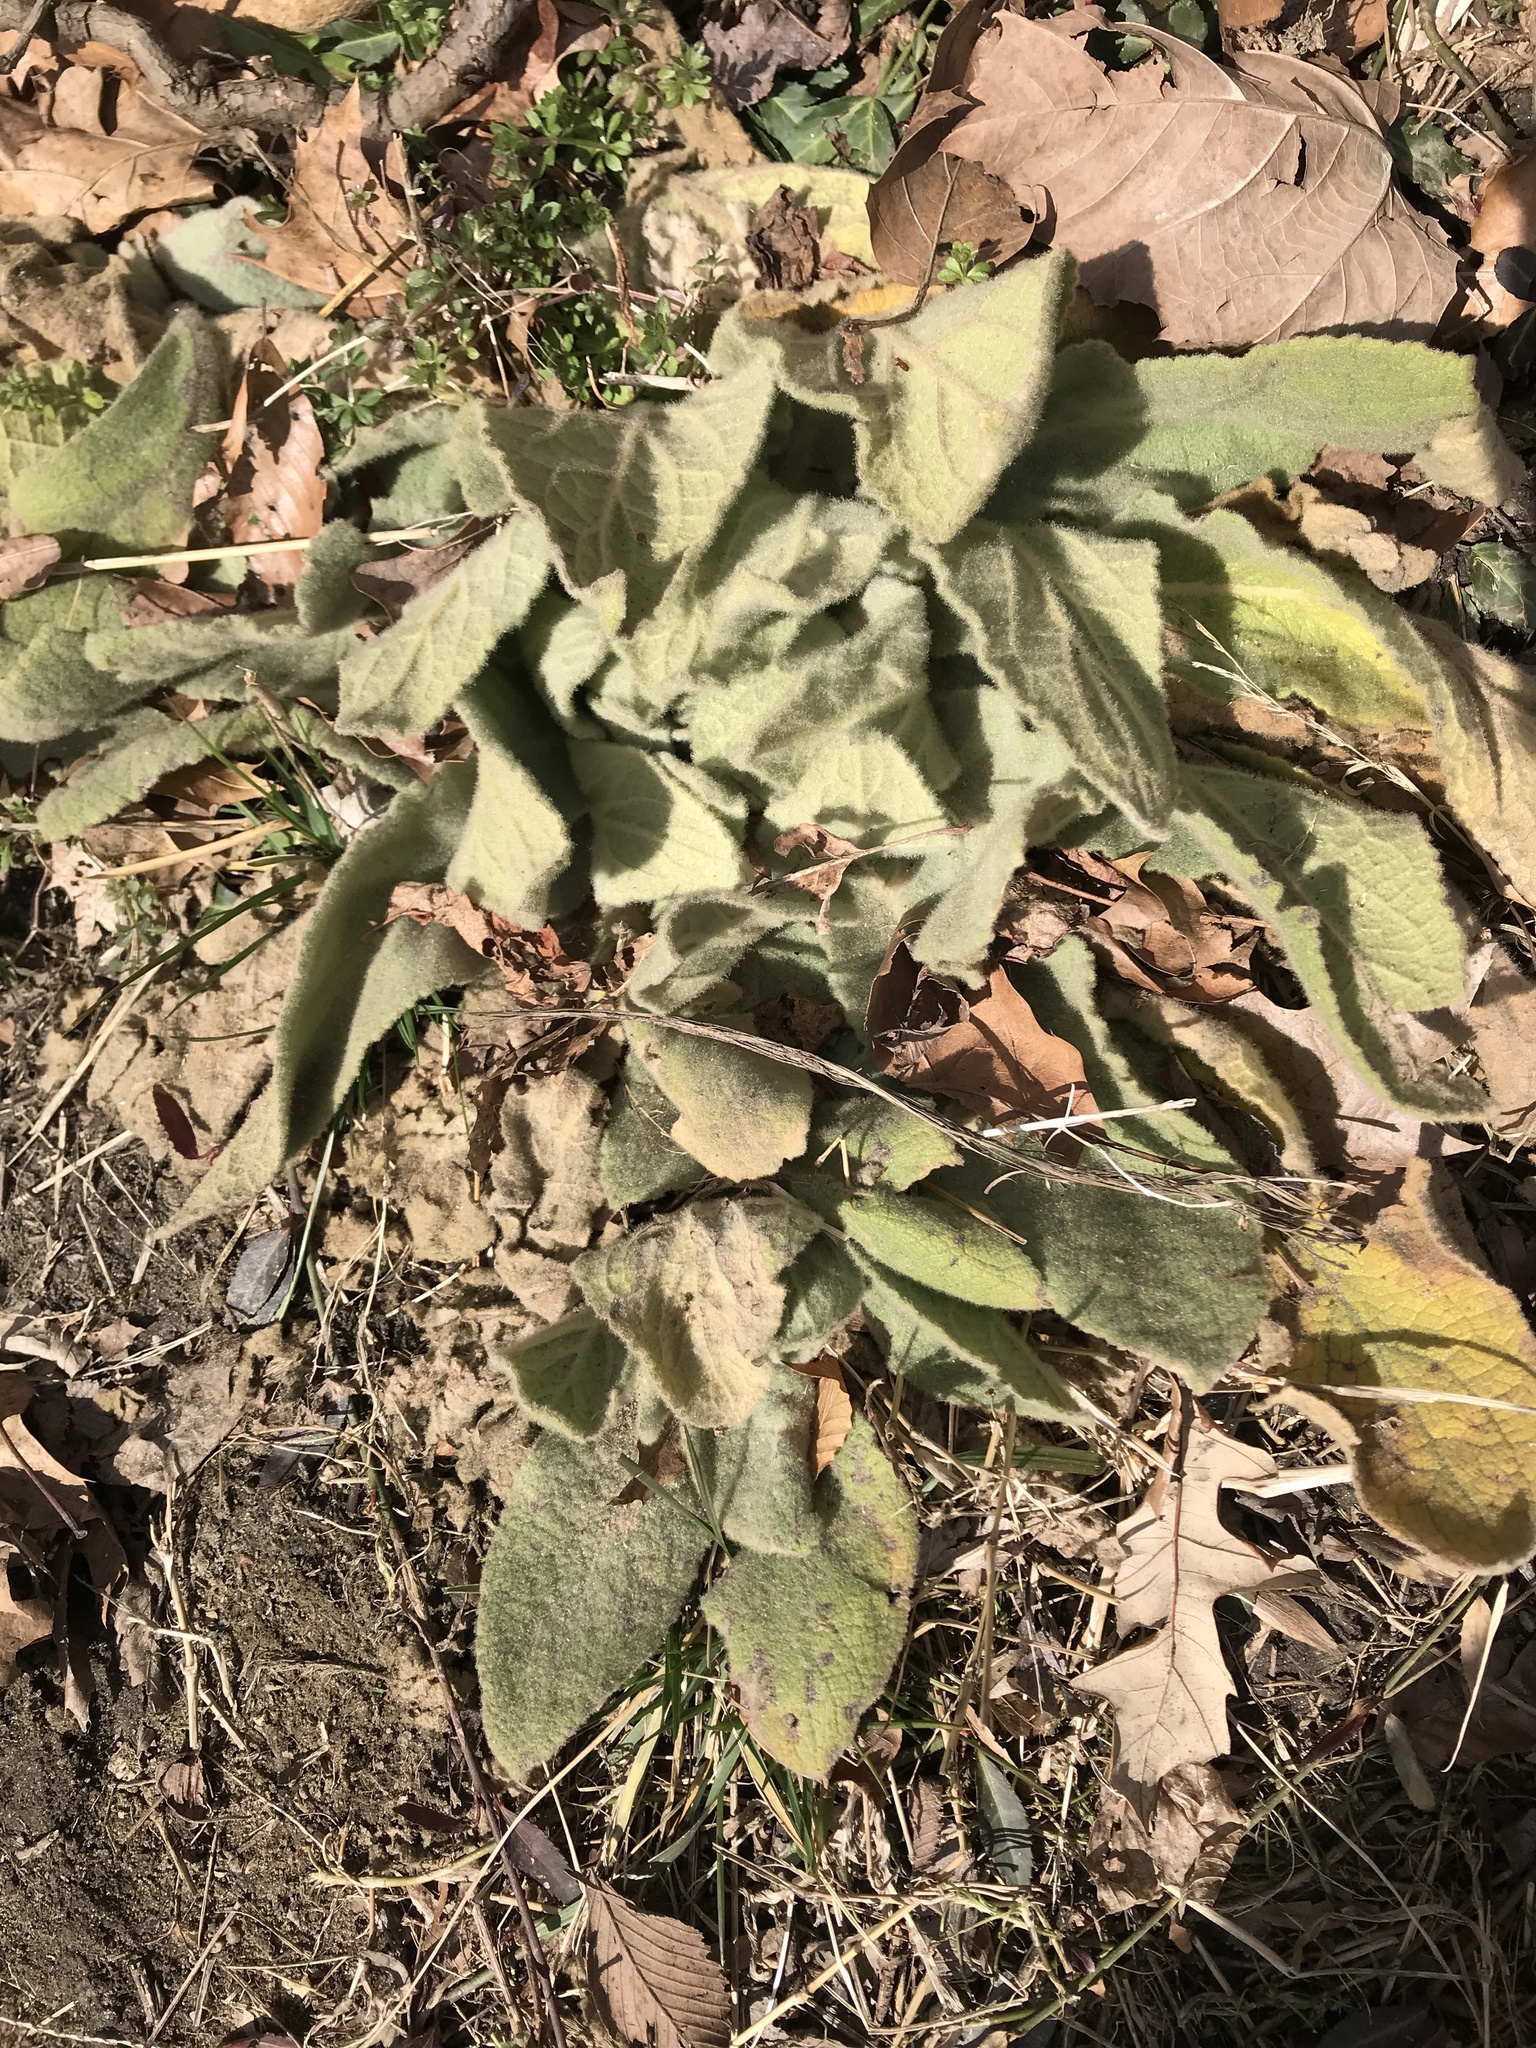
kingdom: Plantae
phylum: Tracheophyta
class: Magnoliopsida
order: Lamiales
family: Scrophulariaceae
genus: Verbascum
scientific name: Verbascum thapsus
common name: Common mullein
